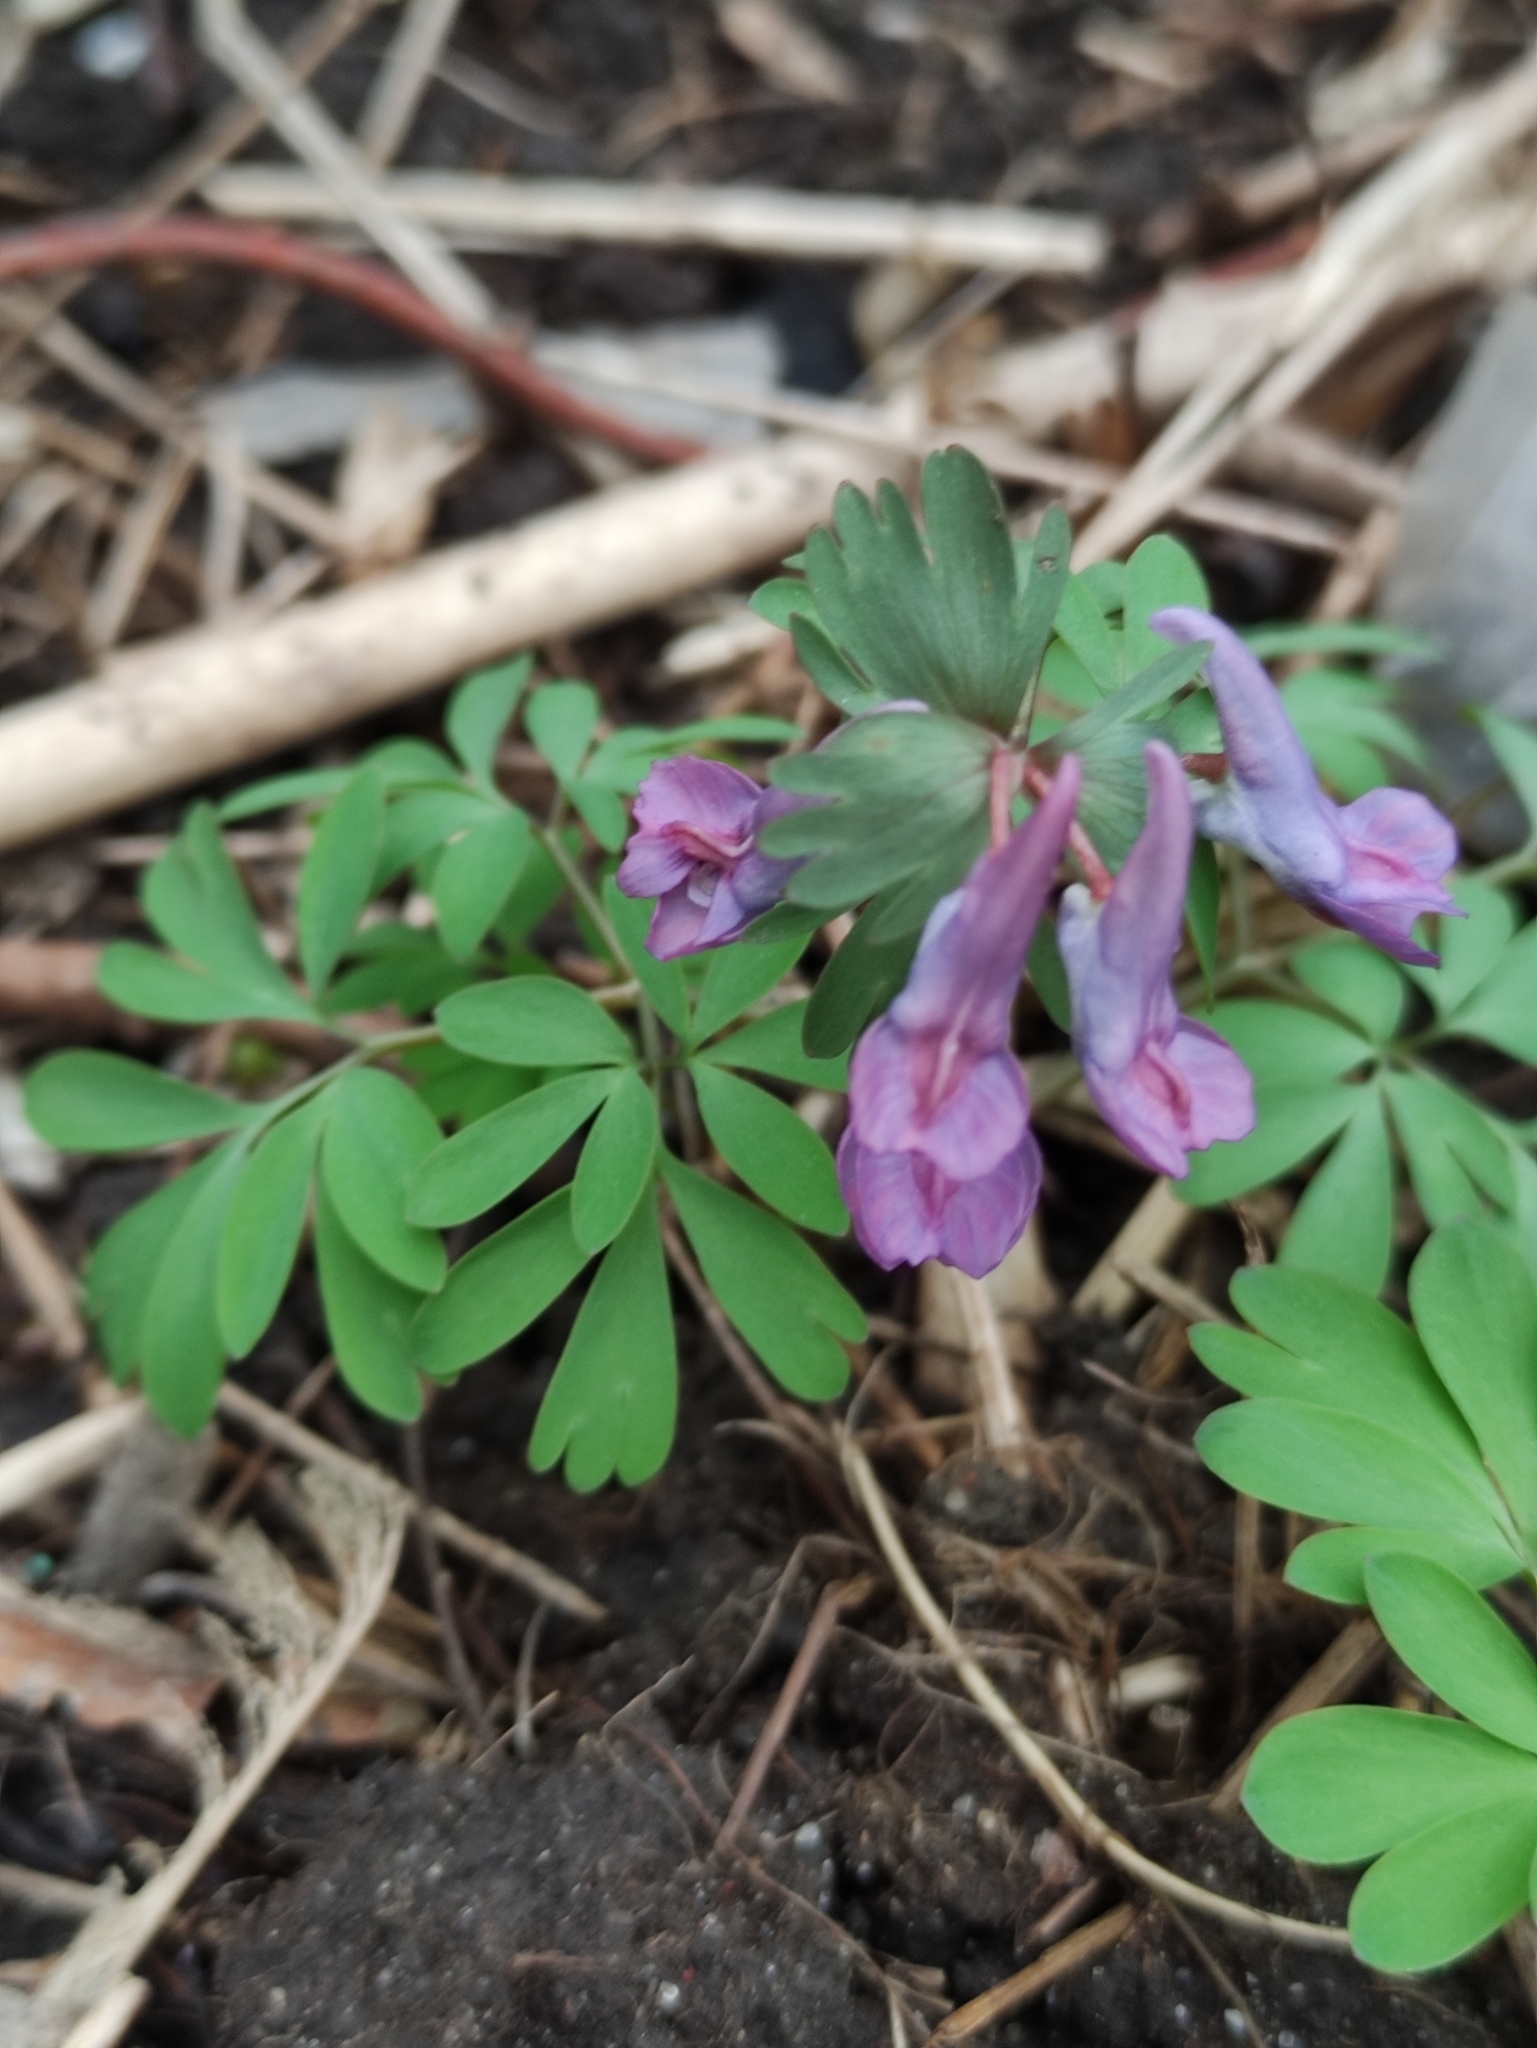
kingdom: Plantae
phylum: Tracheophyta
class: Magnoliopsida
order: Ranunculales
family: Papaveraceae
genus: Corydalis
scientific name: Corydalis solida
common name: Bird-in-a-bush
